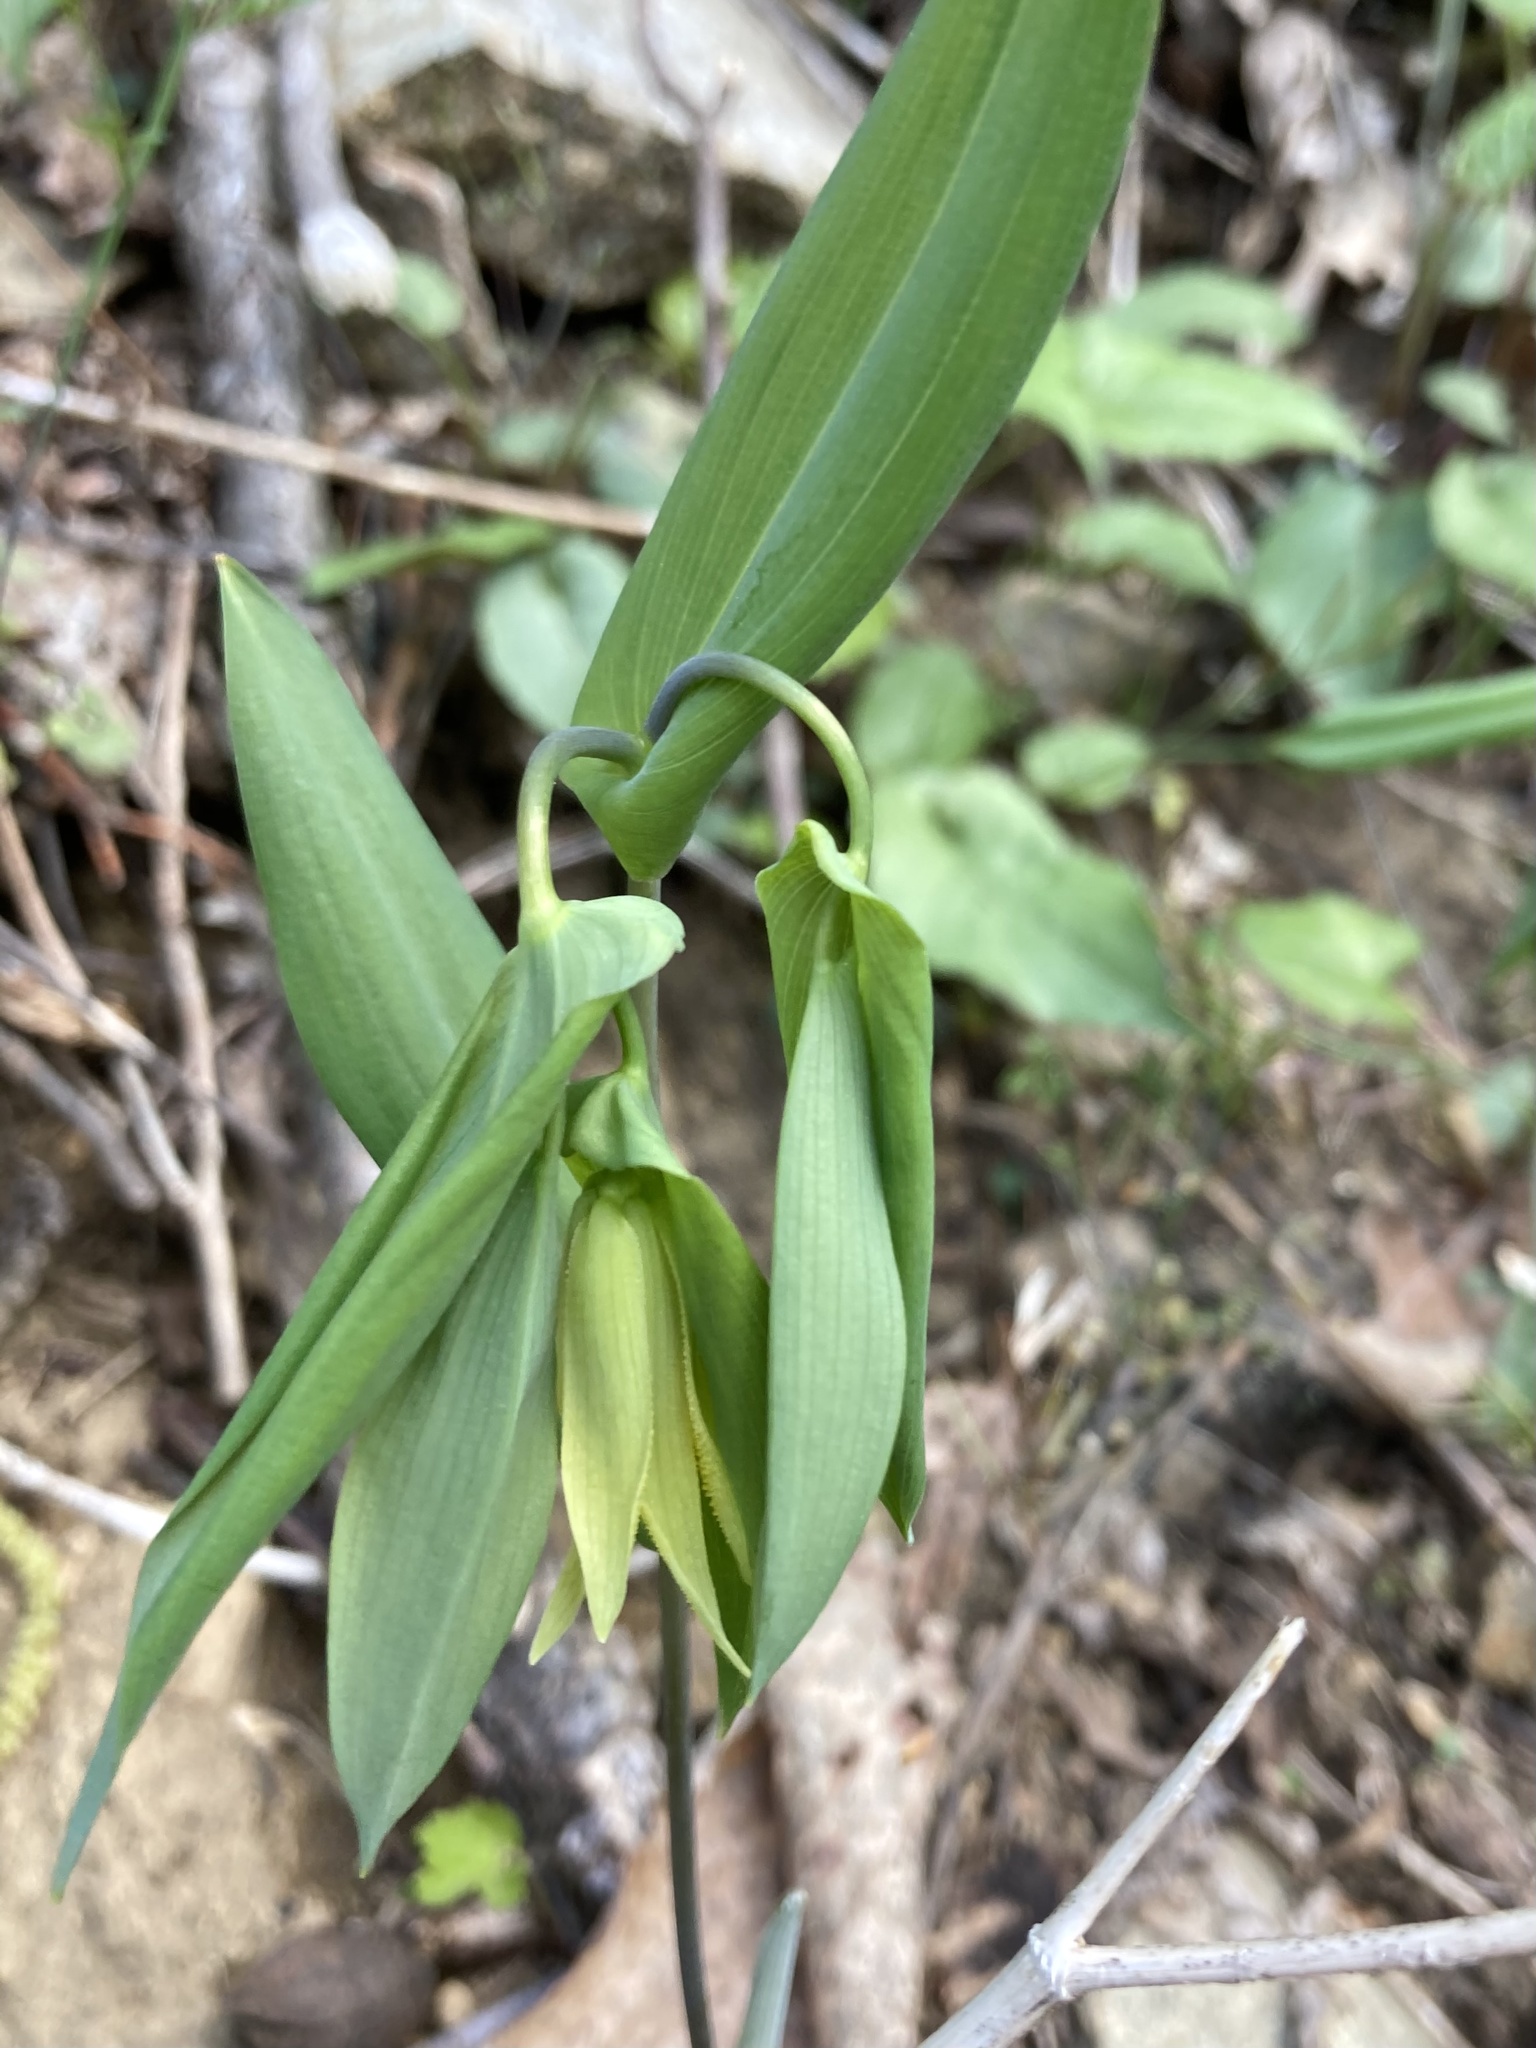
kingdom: Plantae
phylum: Tracheophyta
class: Liliopsida
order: Liliales
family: Colchicaceae
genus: Uvularia
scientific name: Uvularia perfoliata
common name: Perfoliate bellwort
